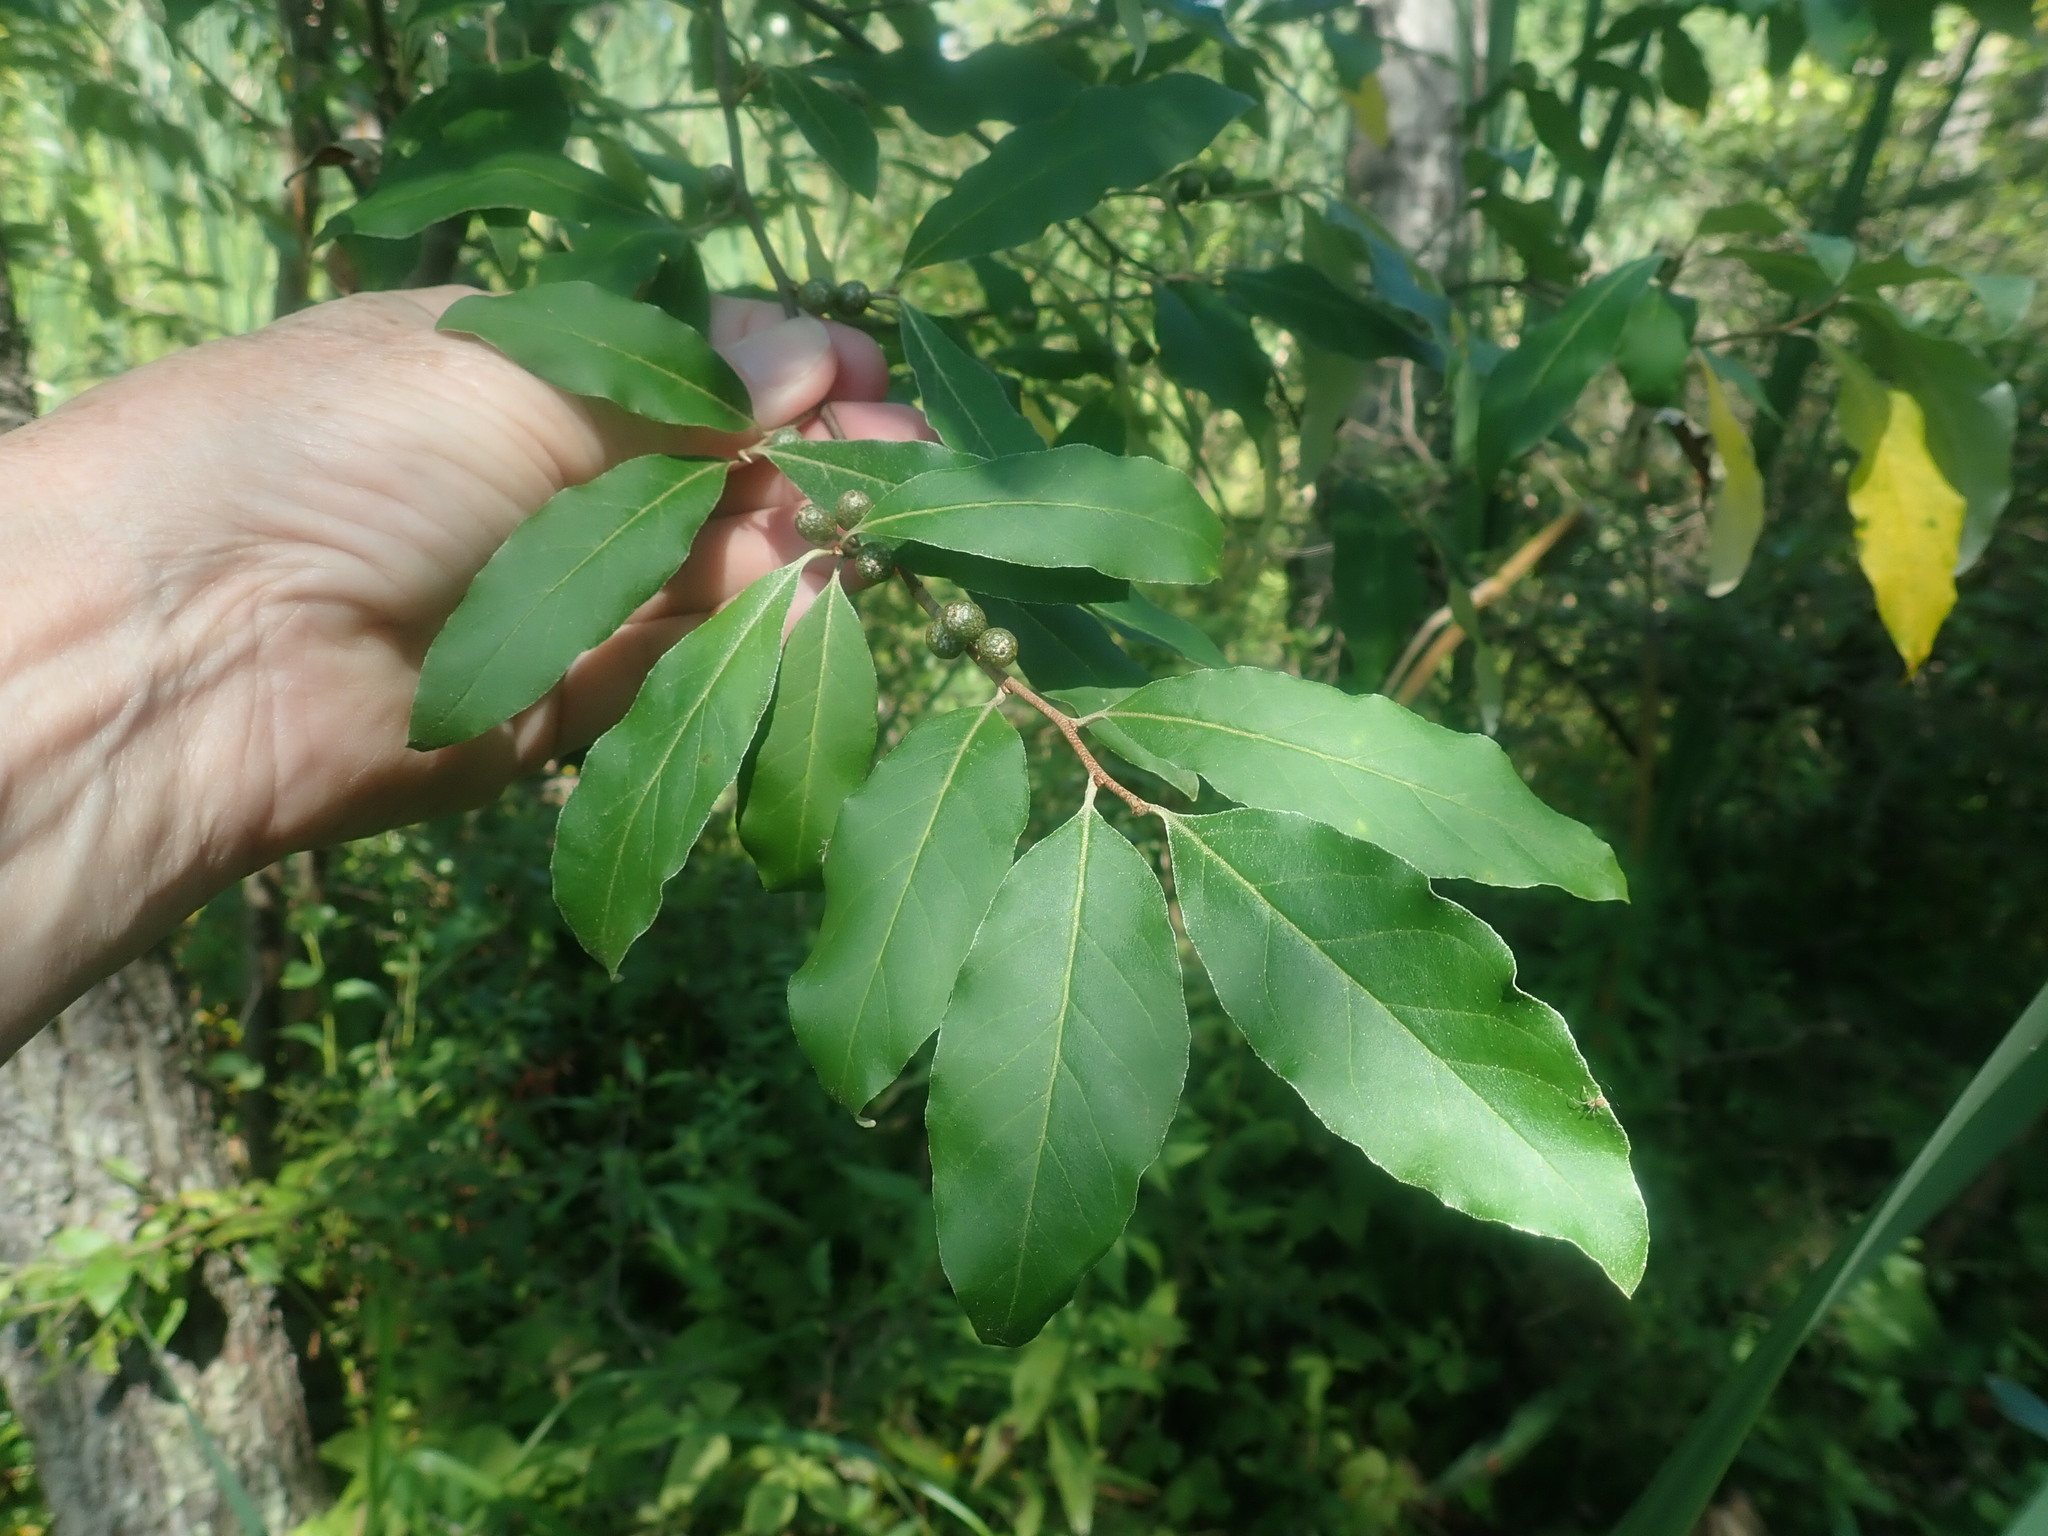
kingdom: Plantae
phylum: Tracheophyta
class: Magnoliopsida
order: Rosales
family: Elaeagnaceae
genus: Elaeagnus
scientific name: Elaeagnus umbellata
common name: Autumn olive
